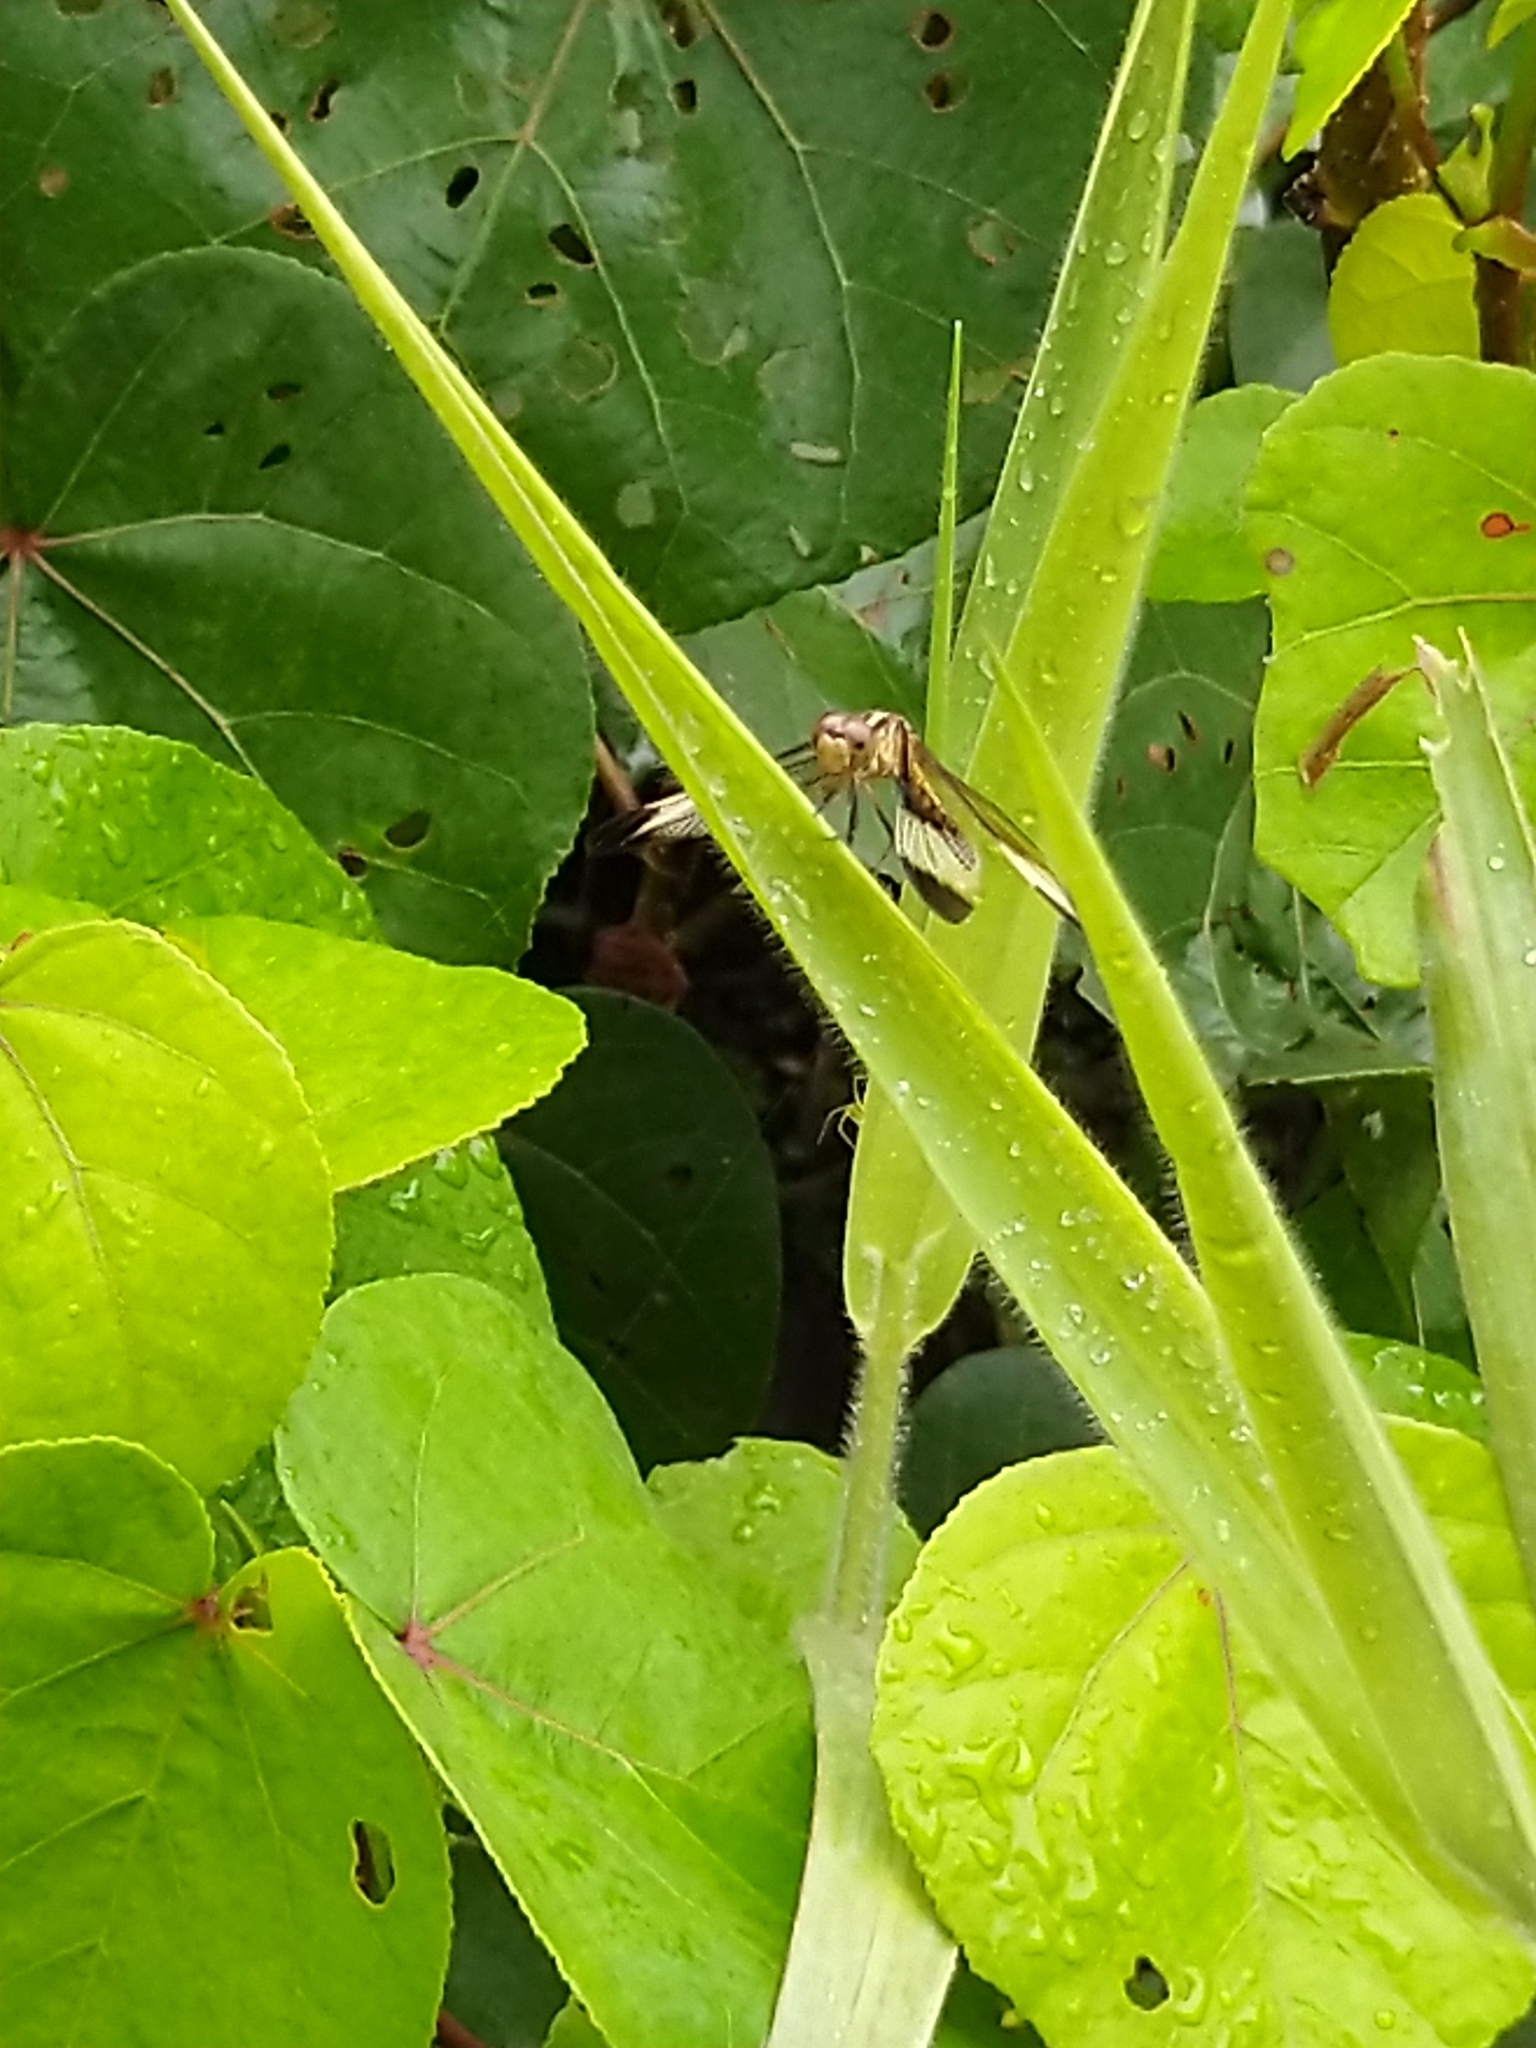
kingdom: Animalia
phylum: Arthropoda
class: Insecta
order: Odonata
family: Libellulidae
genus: Neurothemis
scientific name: Neurothemis tullia
